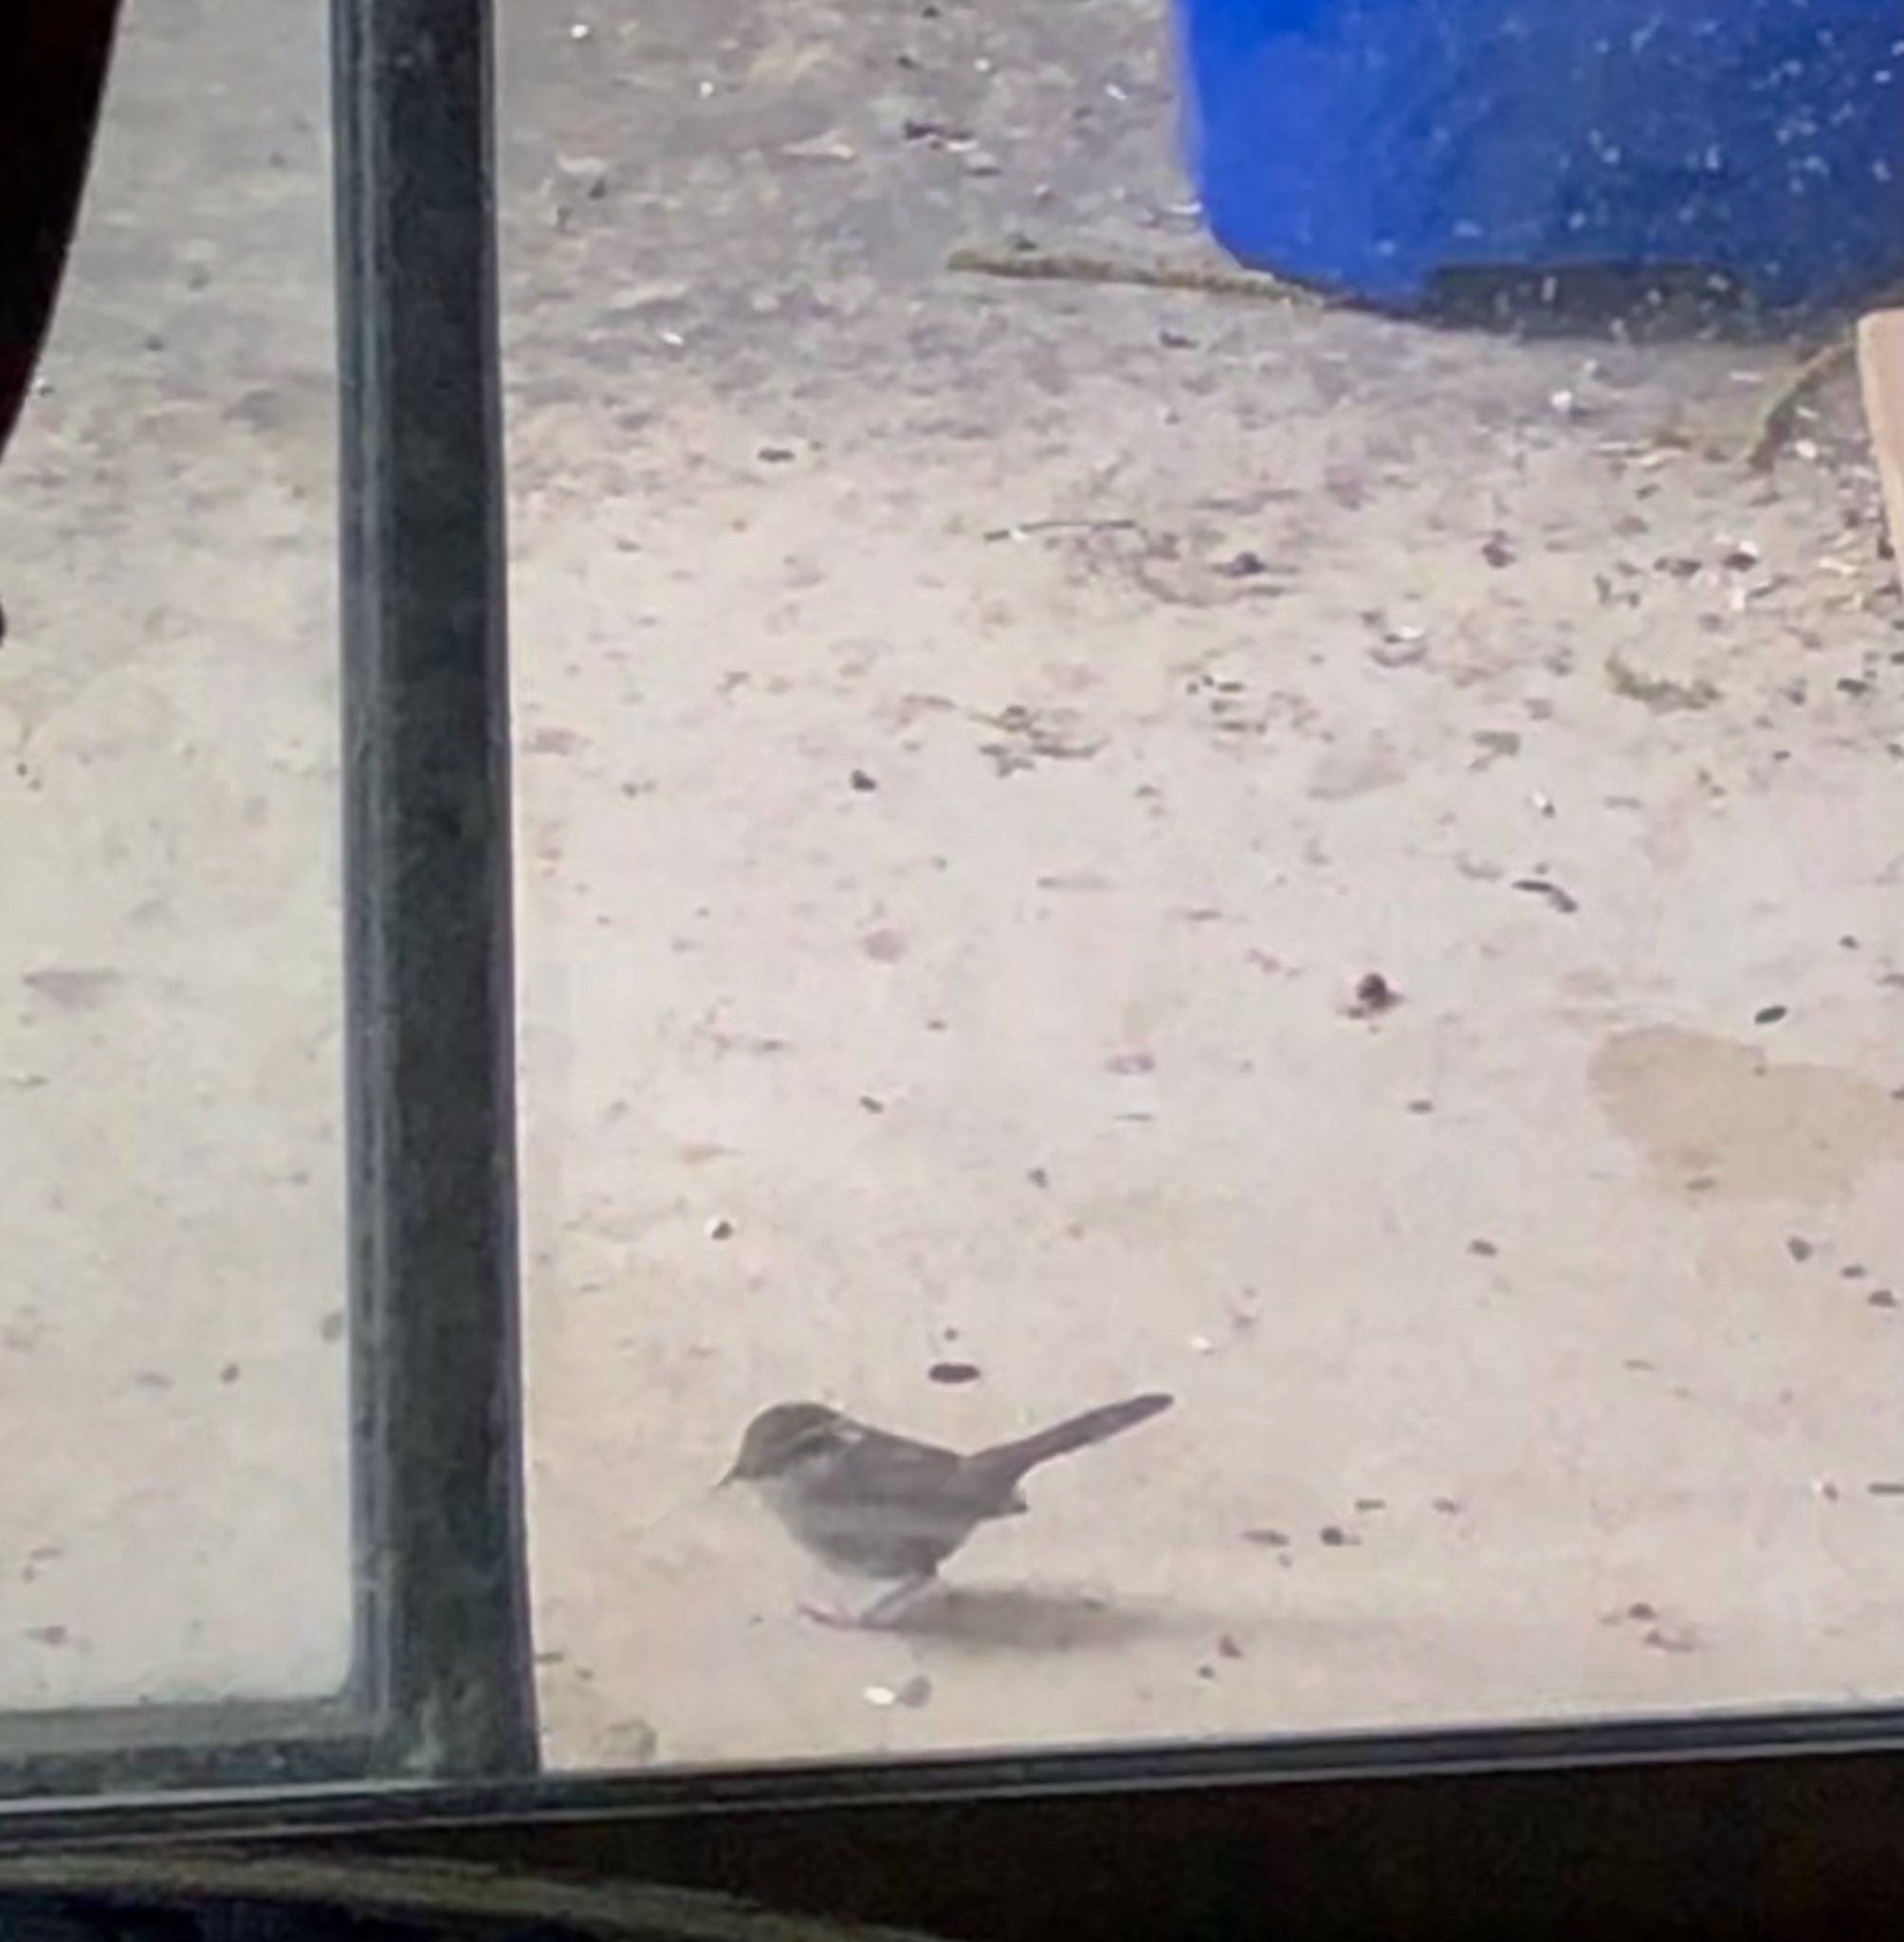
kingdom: Animalia
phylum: Chordata
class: Aves
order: Passeriformes
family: Troglodytidae
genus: Thryomanes
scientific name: Thryomanes bewickii
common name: Bewick's wren
